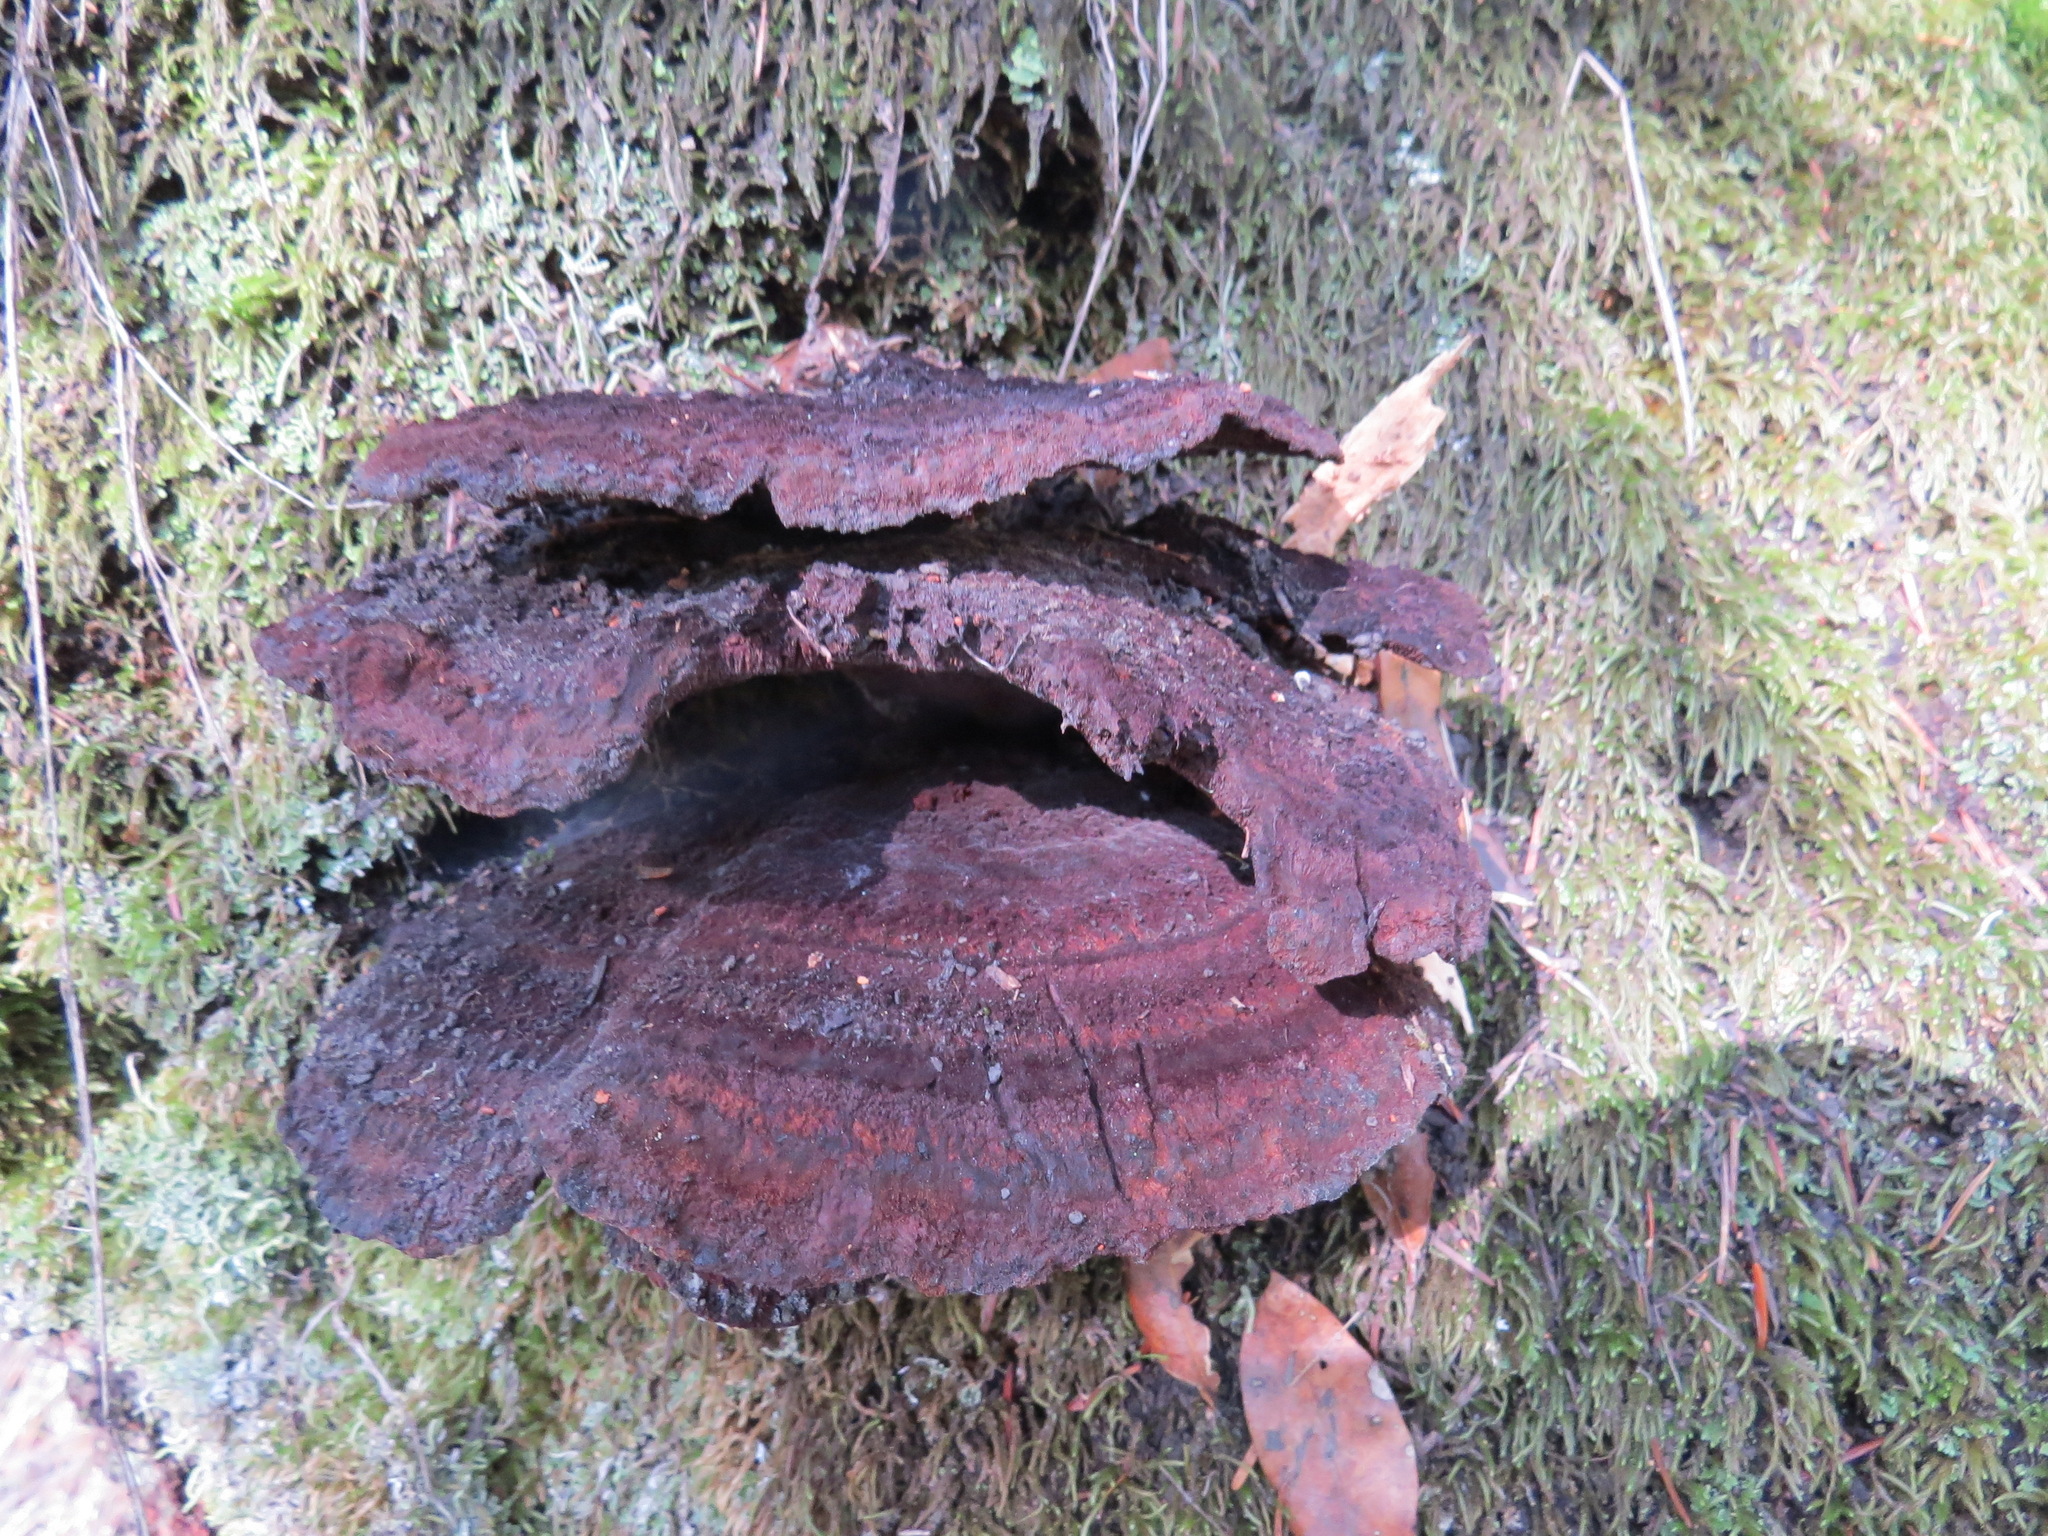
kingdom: Fungi
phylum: Basidiomycota
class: Agaricomycetes
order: Polyporales
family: Laetiporaceae
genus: Phaeolus
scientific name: Phaeolus schweinitzii
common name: Dyer's mazegill
